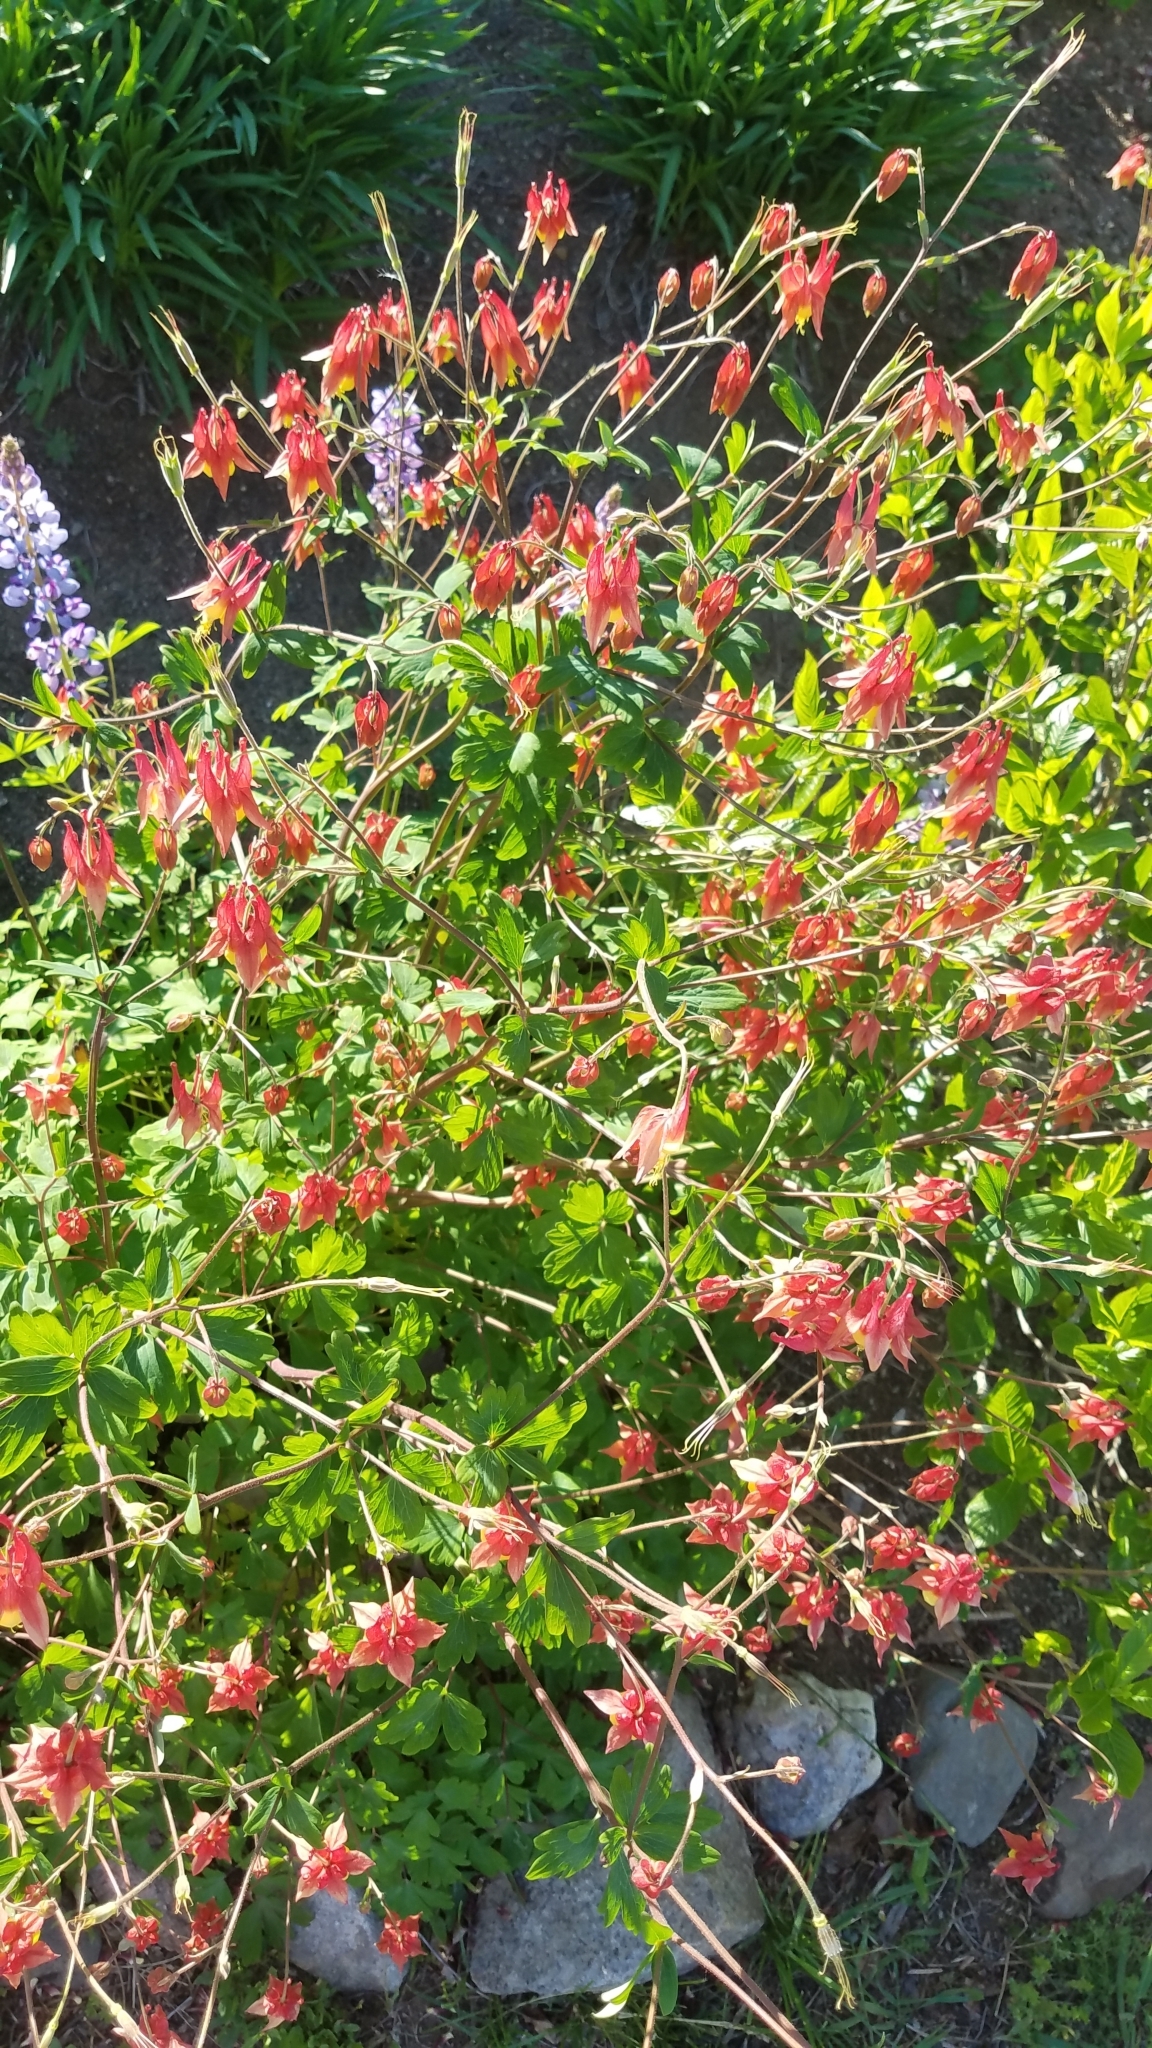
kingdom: Plantae
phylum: Tracheophyta
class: Magnoliopsida
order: Ranunculales
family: Ranunculaceae
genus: Aquilegia
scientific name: Aquilegia canadensis
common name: American columbine
